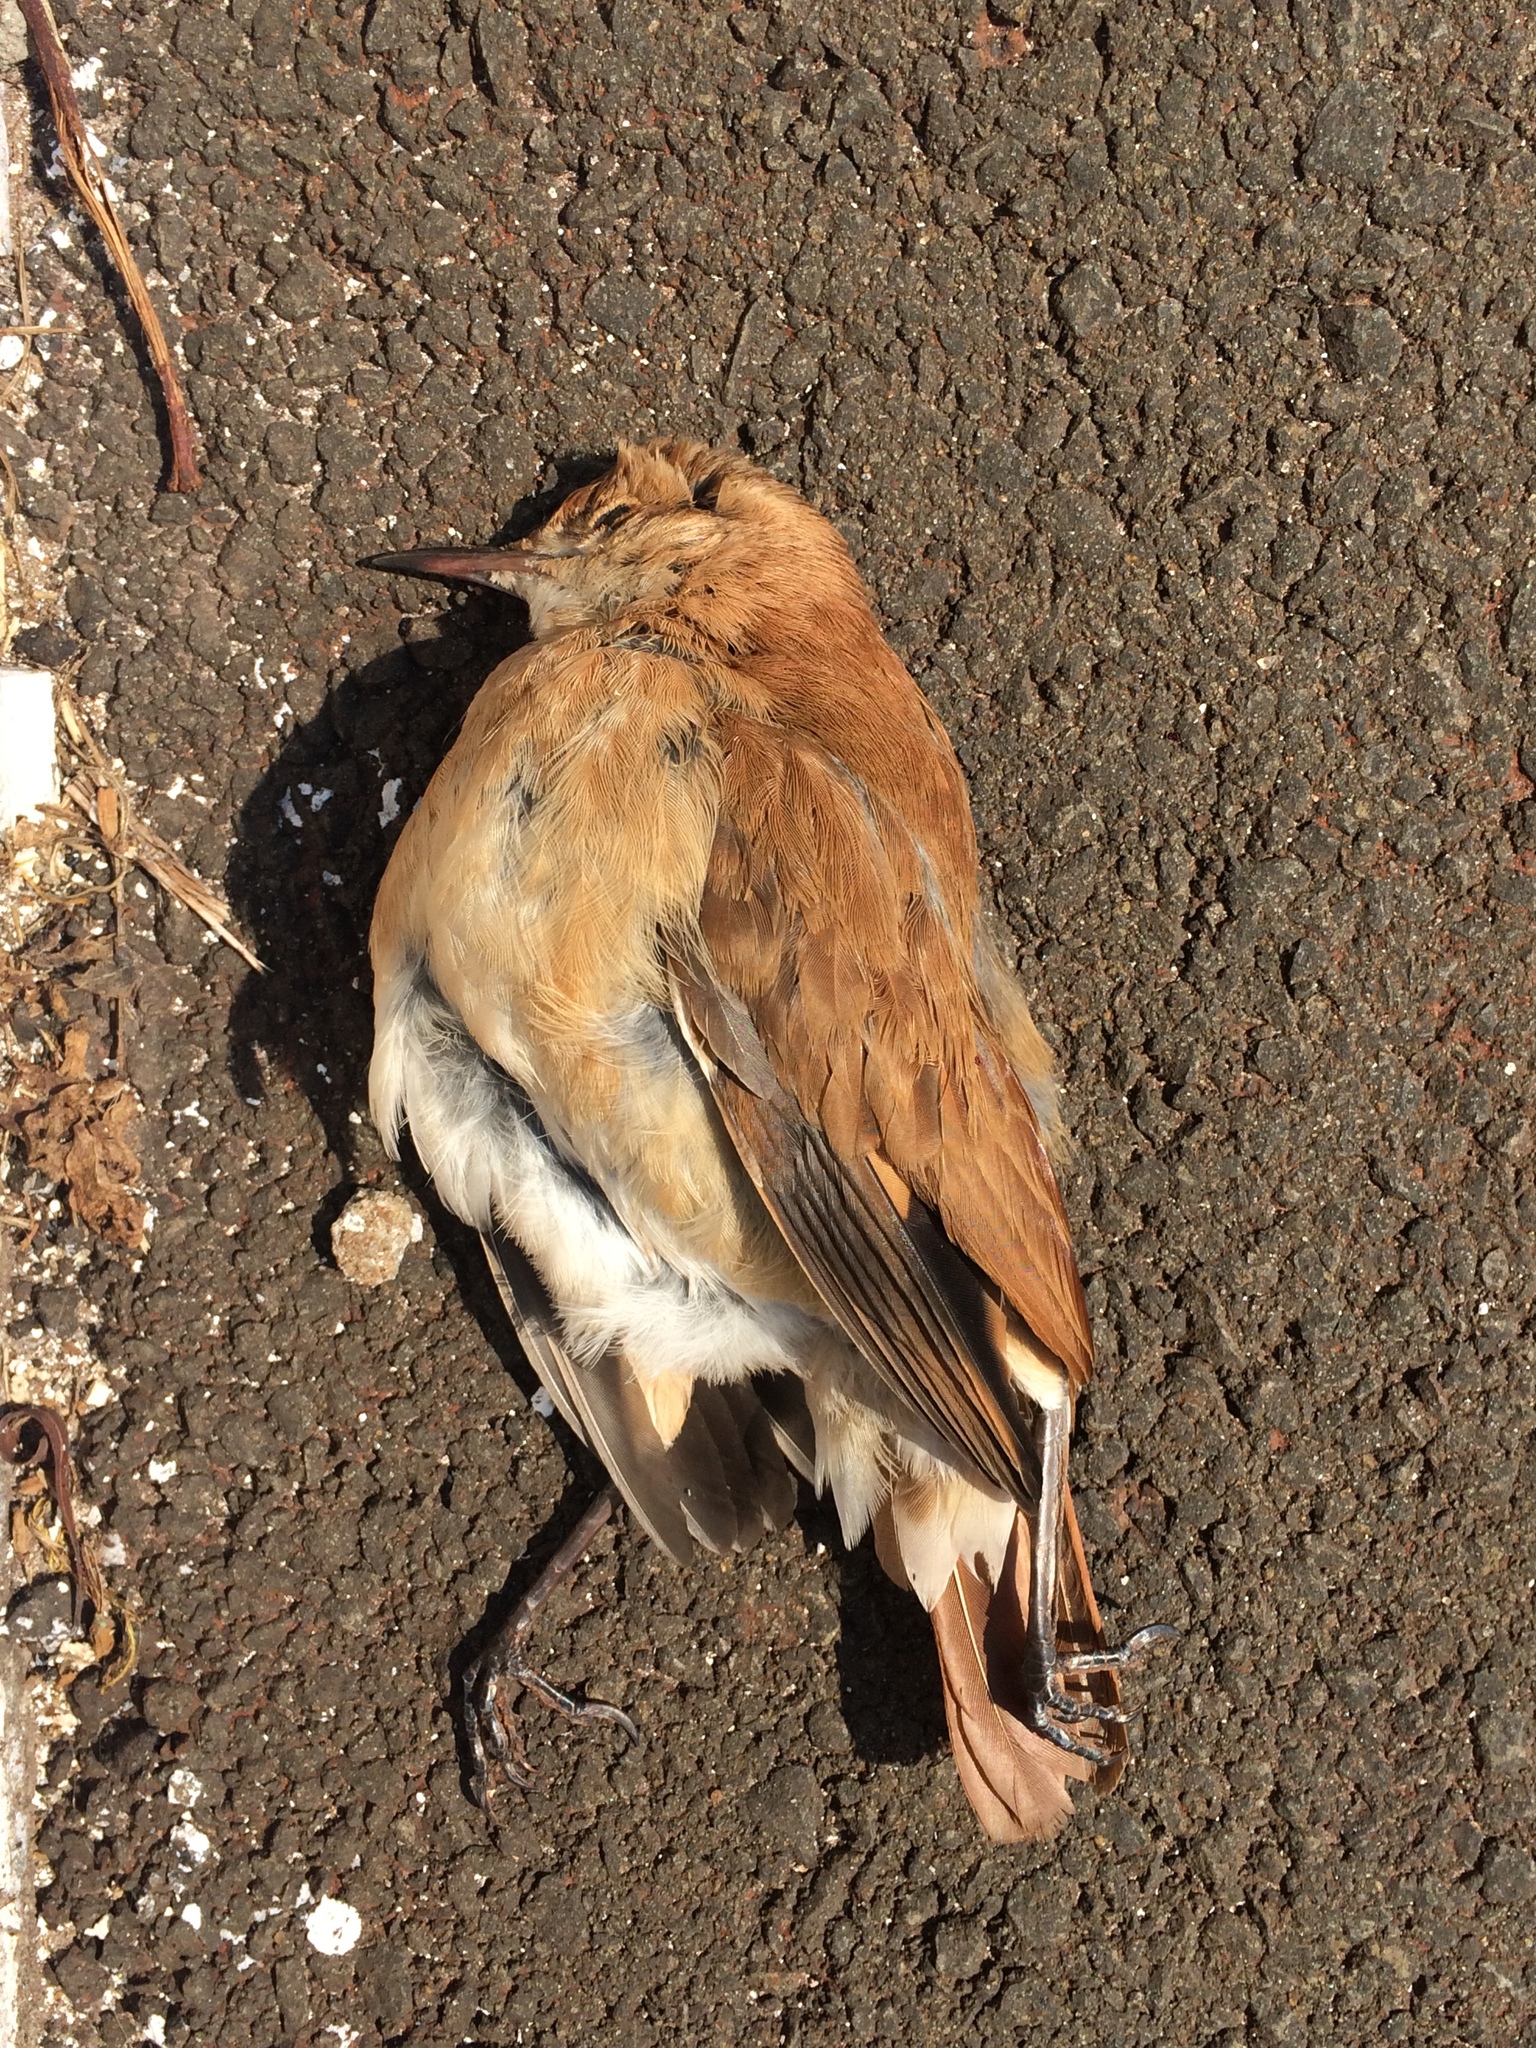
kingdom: Animalia
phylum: Chordata
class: Aves
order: Passeriformes
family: Furnariidae
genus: Furnarius
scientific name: Furnarius rufus
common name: Rufous hornero
